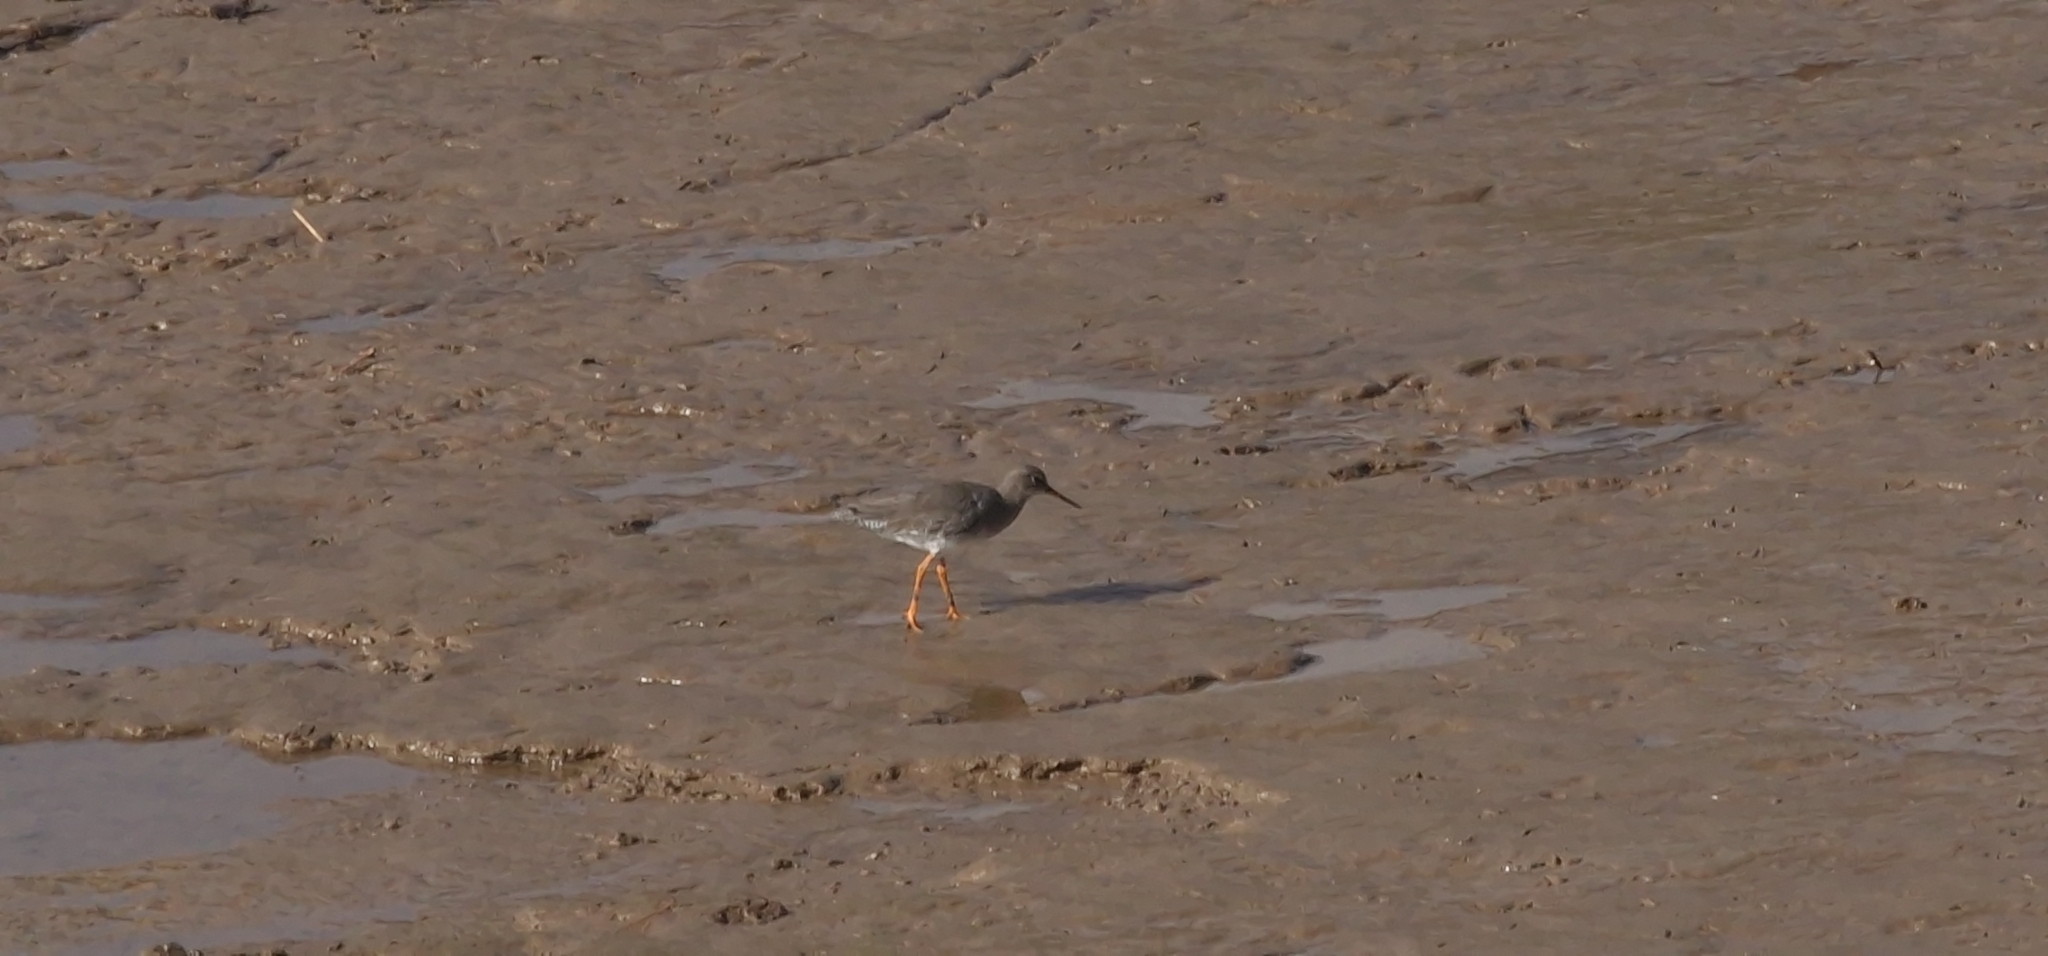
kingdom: Animalia
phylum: Chordata
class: Aves
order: Charadriiformes
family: Scolopacidae
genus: Tringa
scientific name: Tringa totanus
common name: Common redshank
